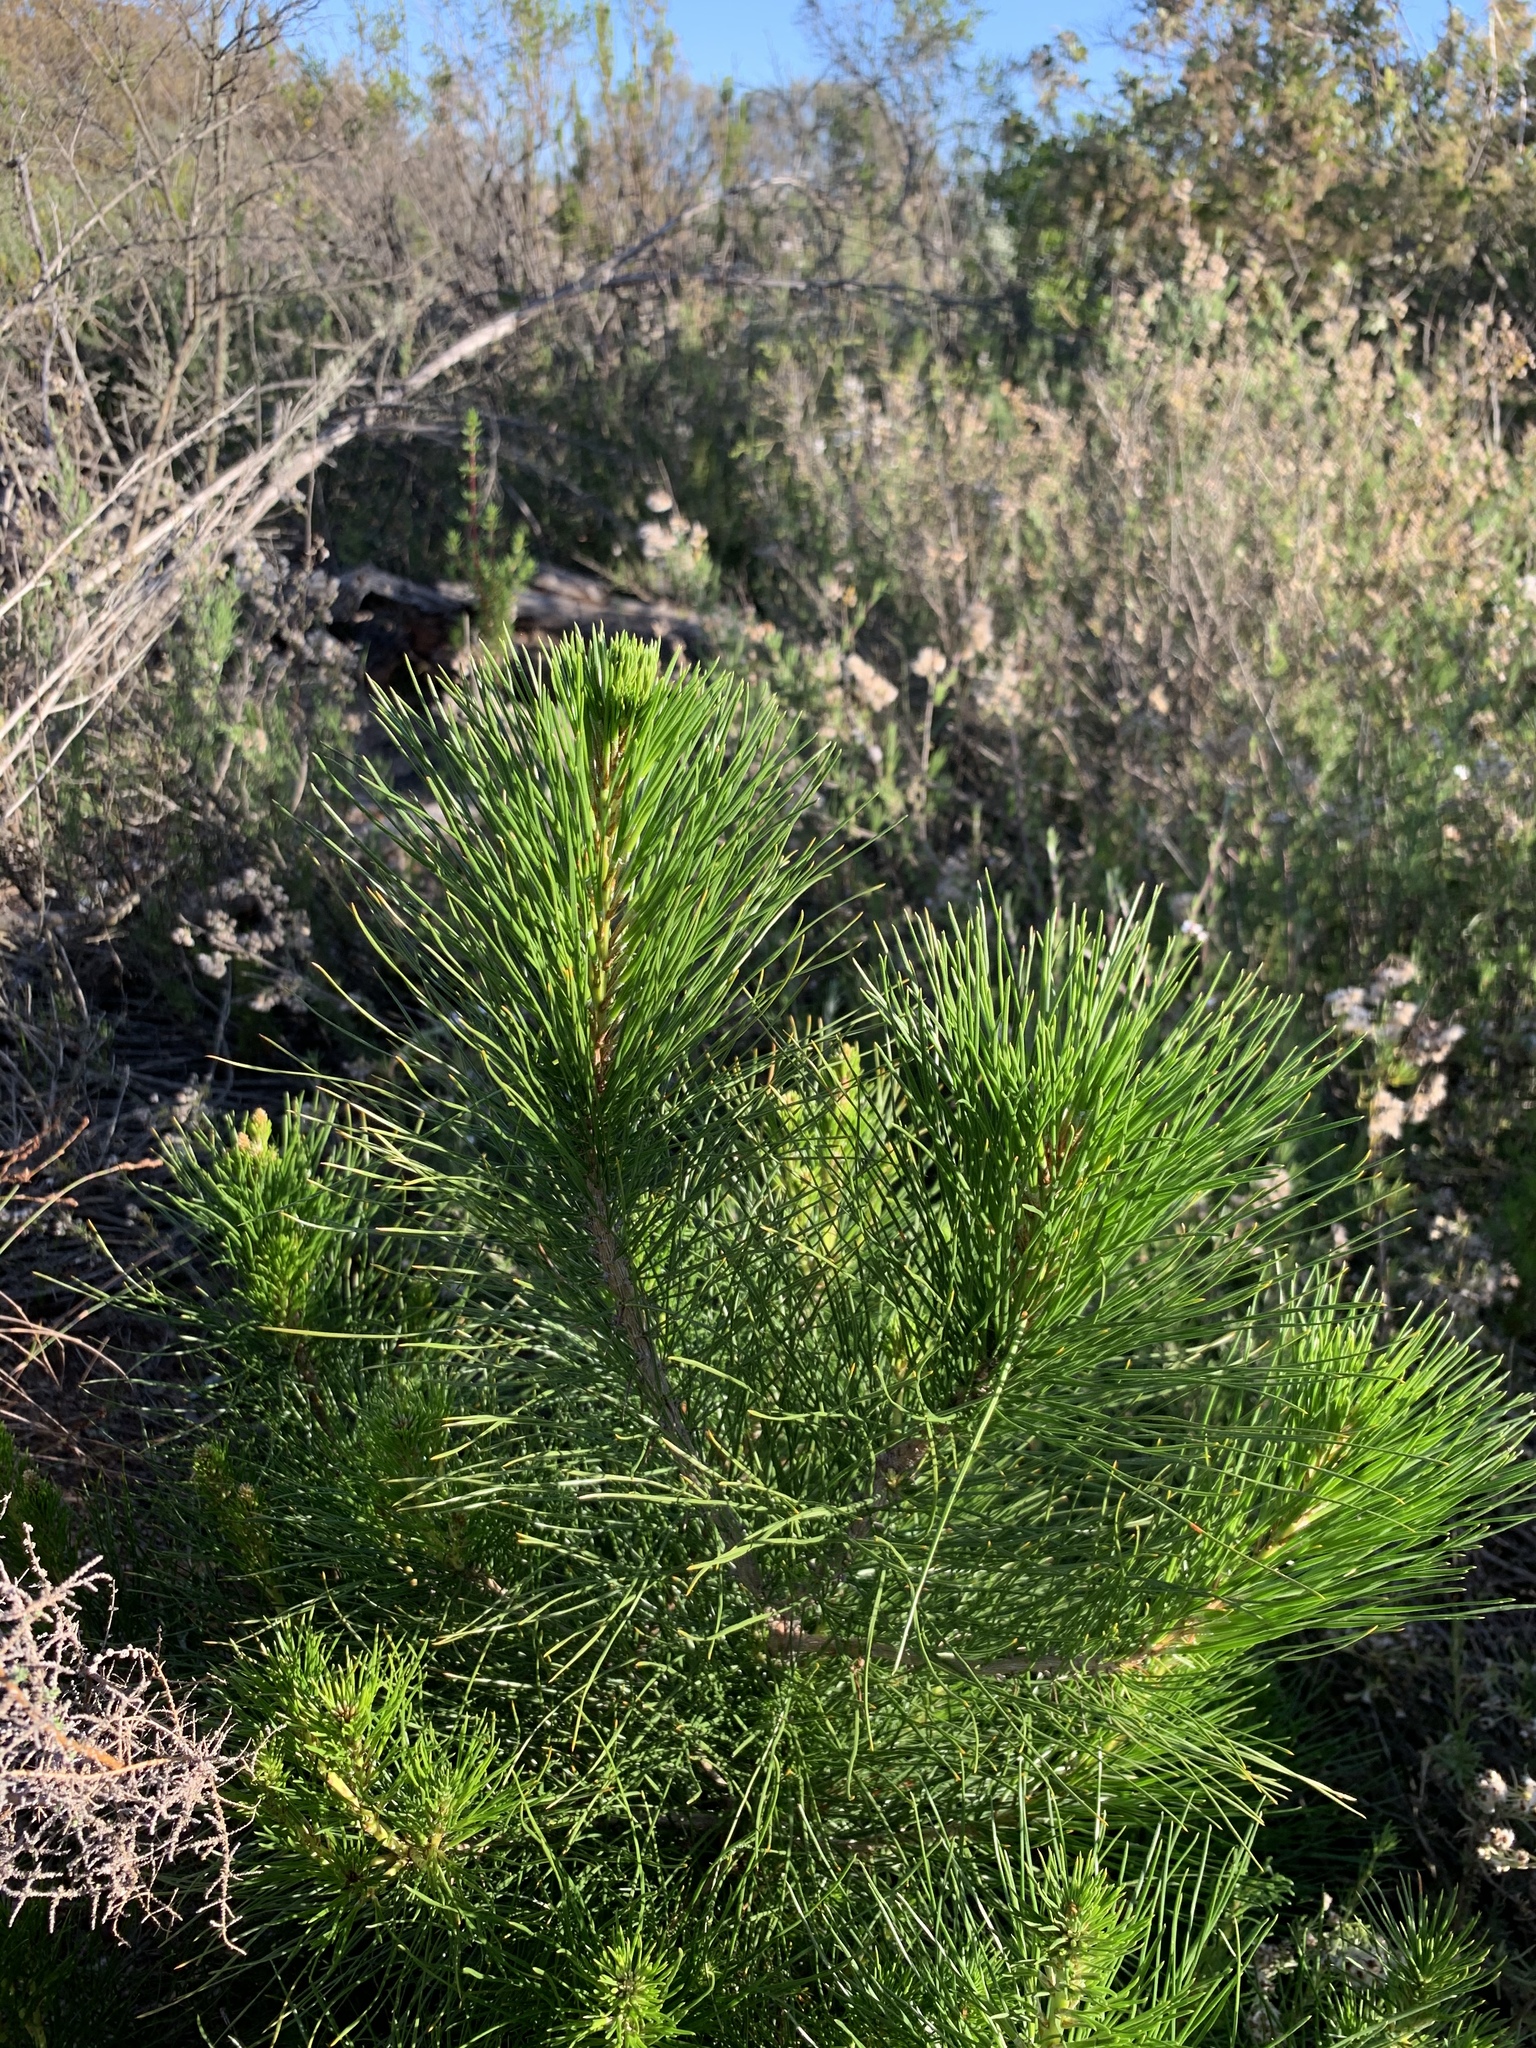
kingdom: Plantae
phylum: Tracheophyta
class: Pinopsida
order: Pinales
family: Pinaceae
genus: Pinus
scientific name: Pinus radiata
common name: Monterey pine
